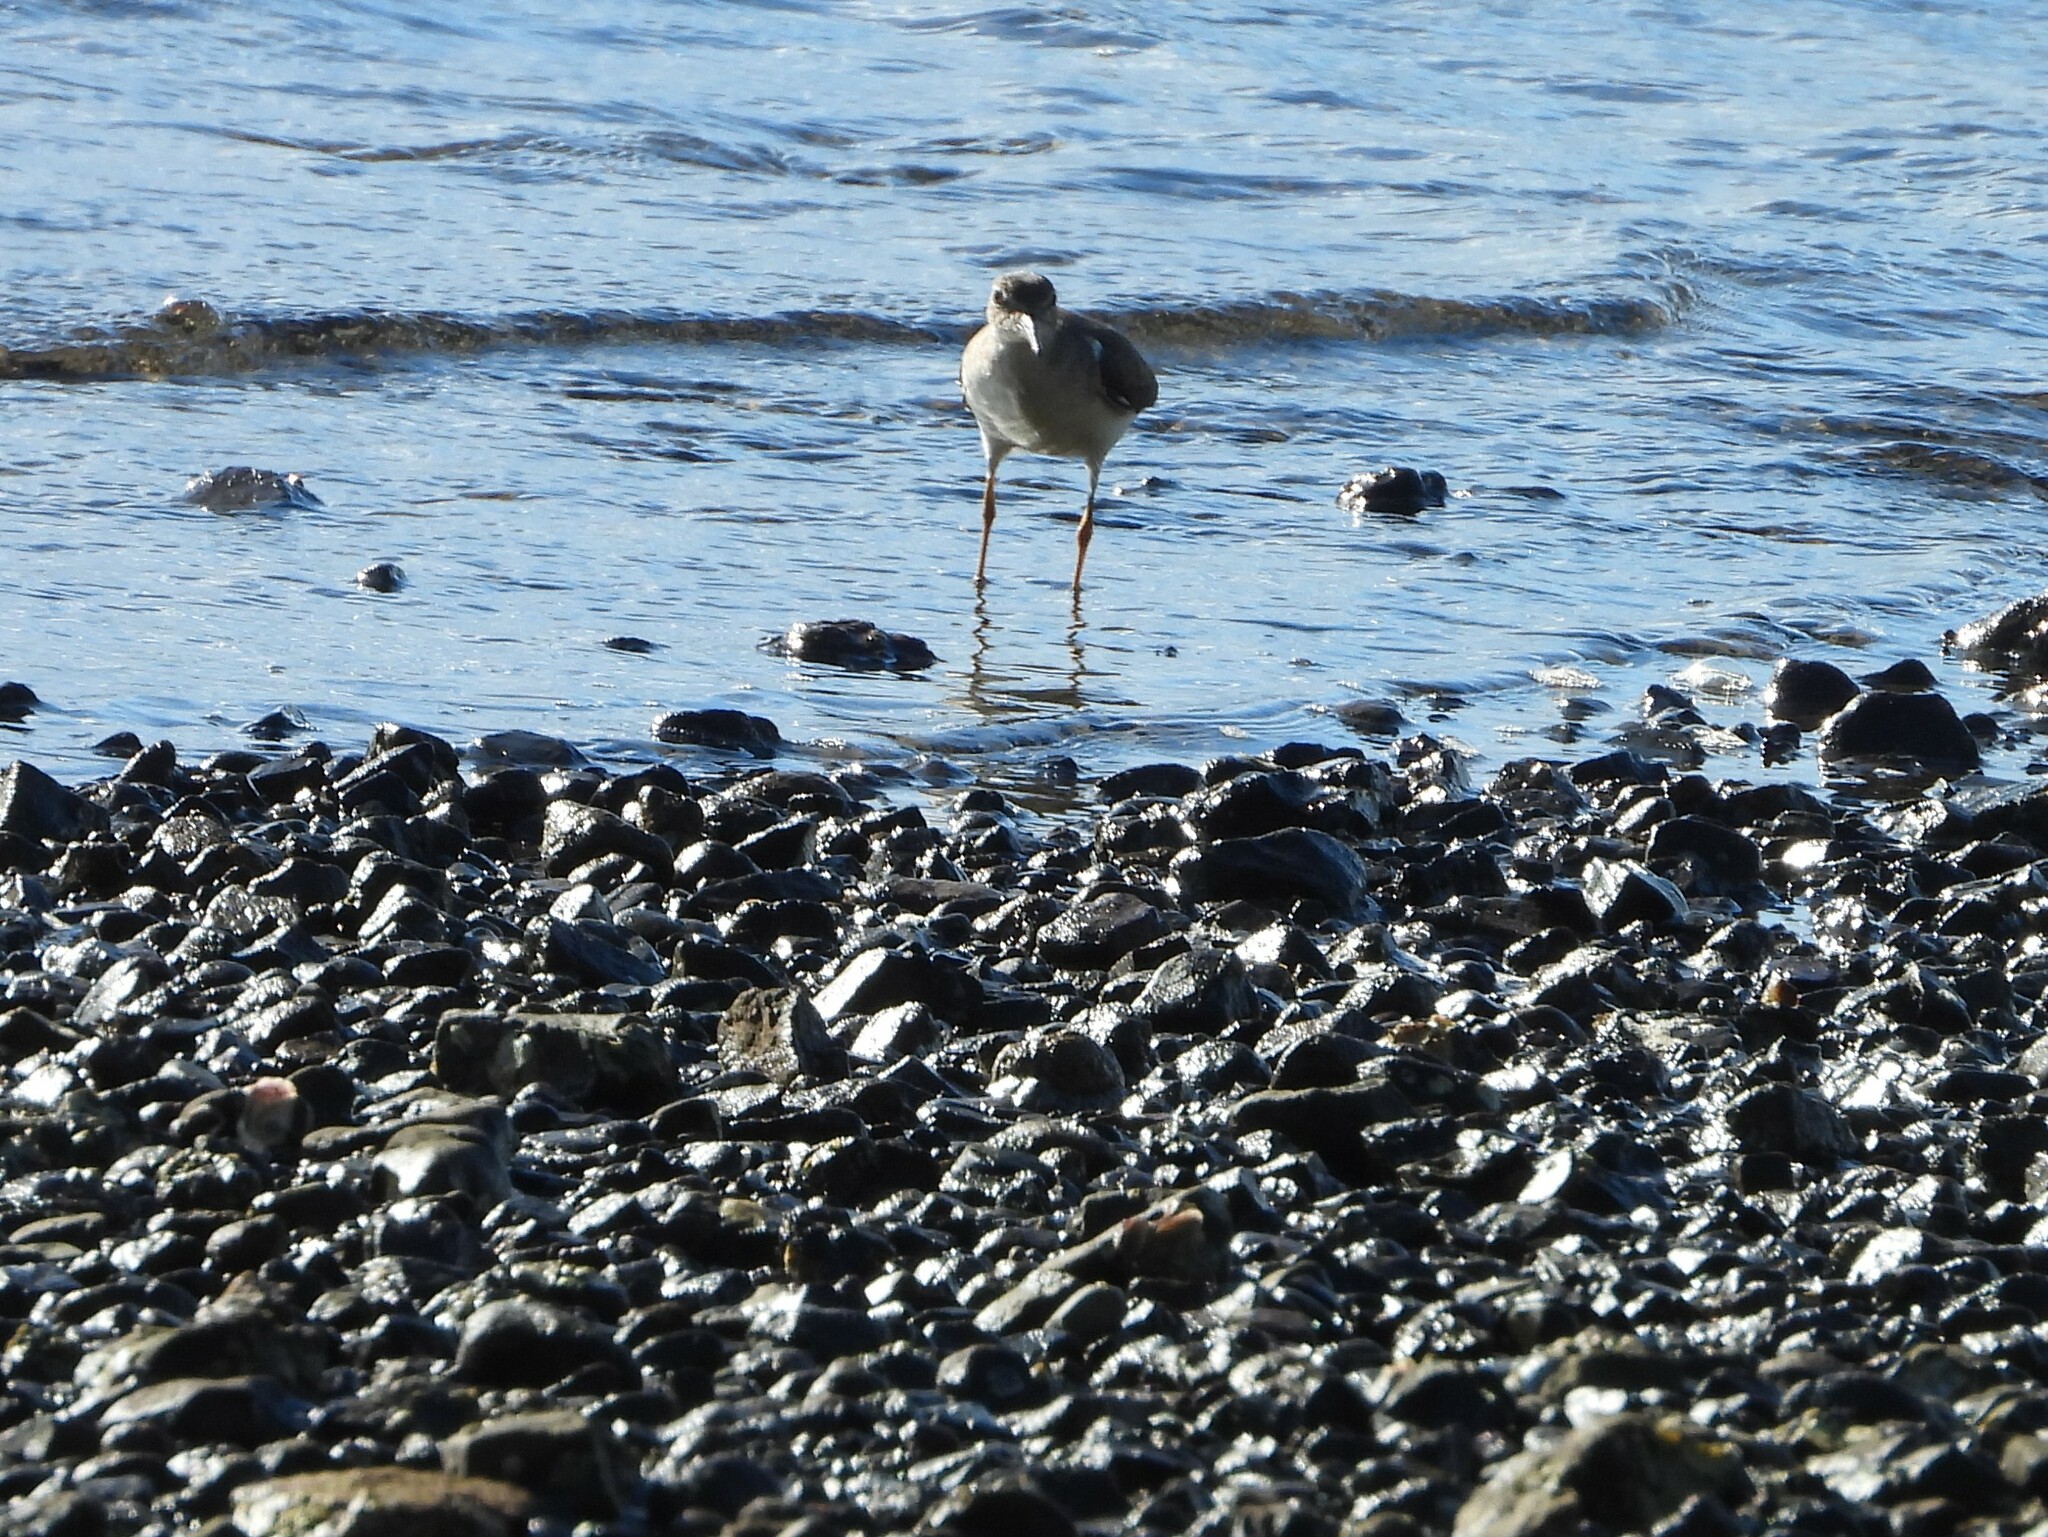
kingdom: Animalia
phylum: Chordata
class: Aves
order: Charadriiformes
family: Scolopacidae
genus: Actitis
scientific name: Actitis macularius
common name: Spotted sandpiper
